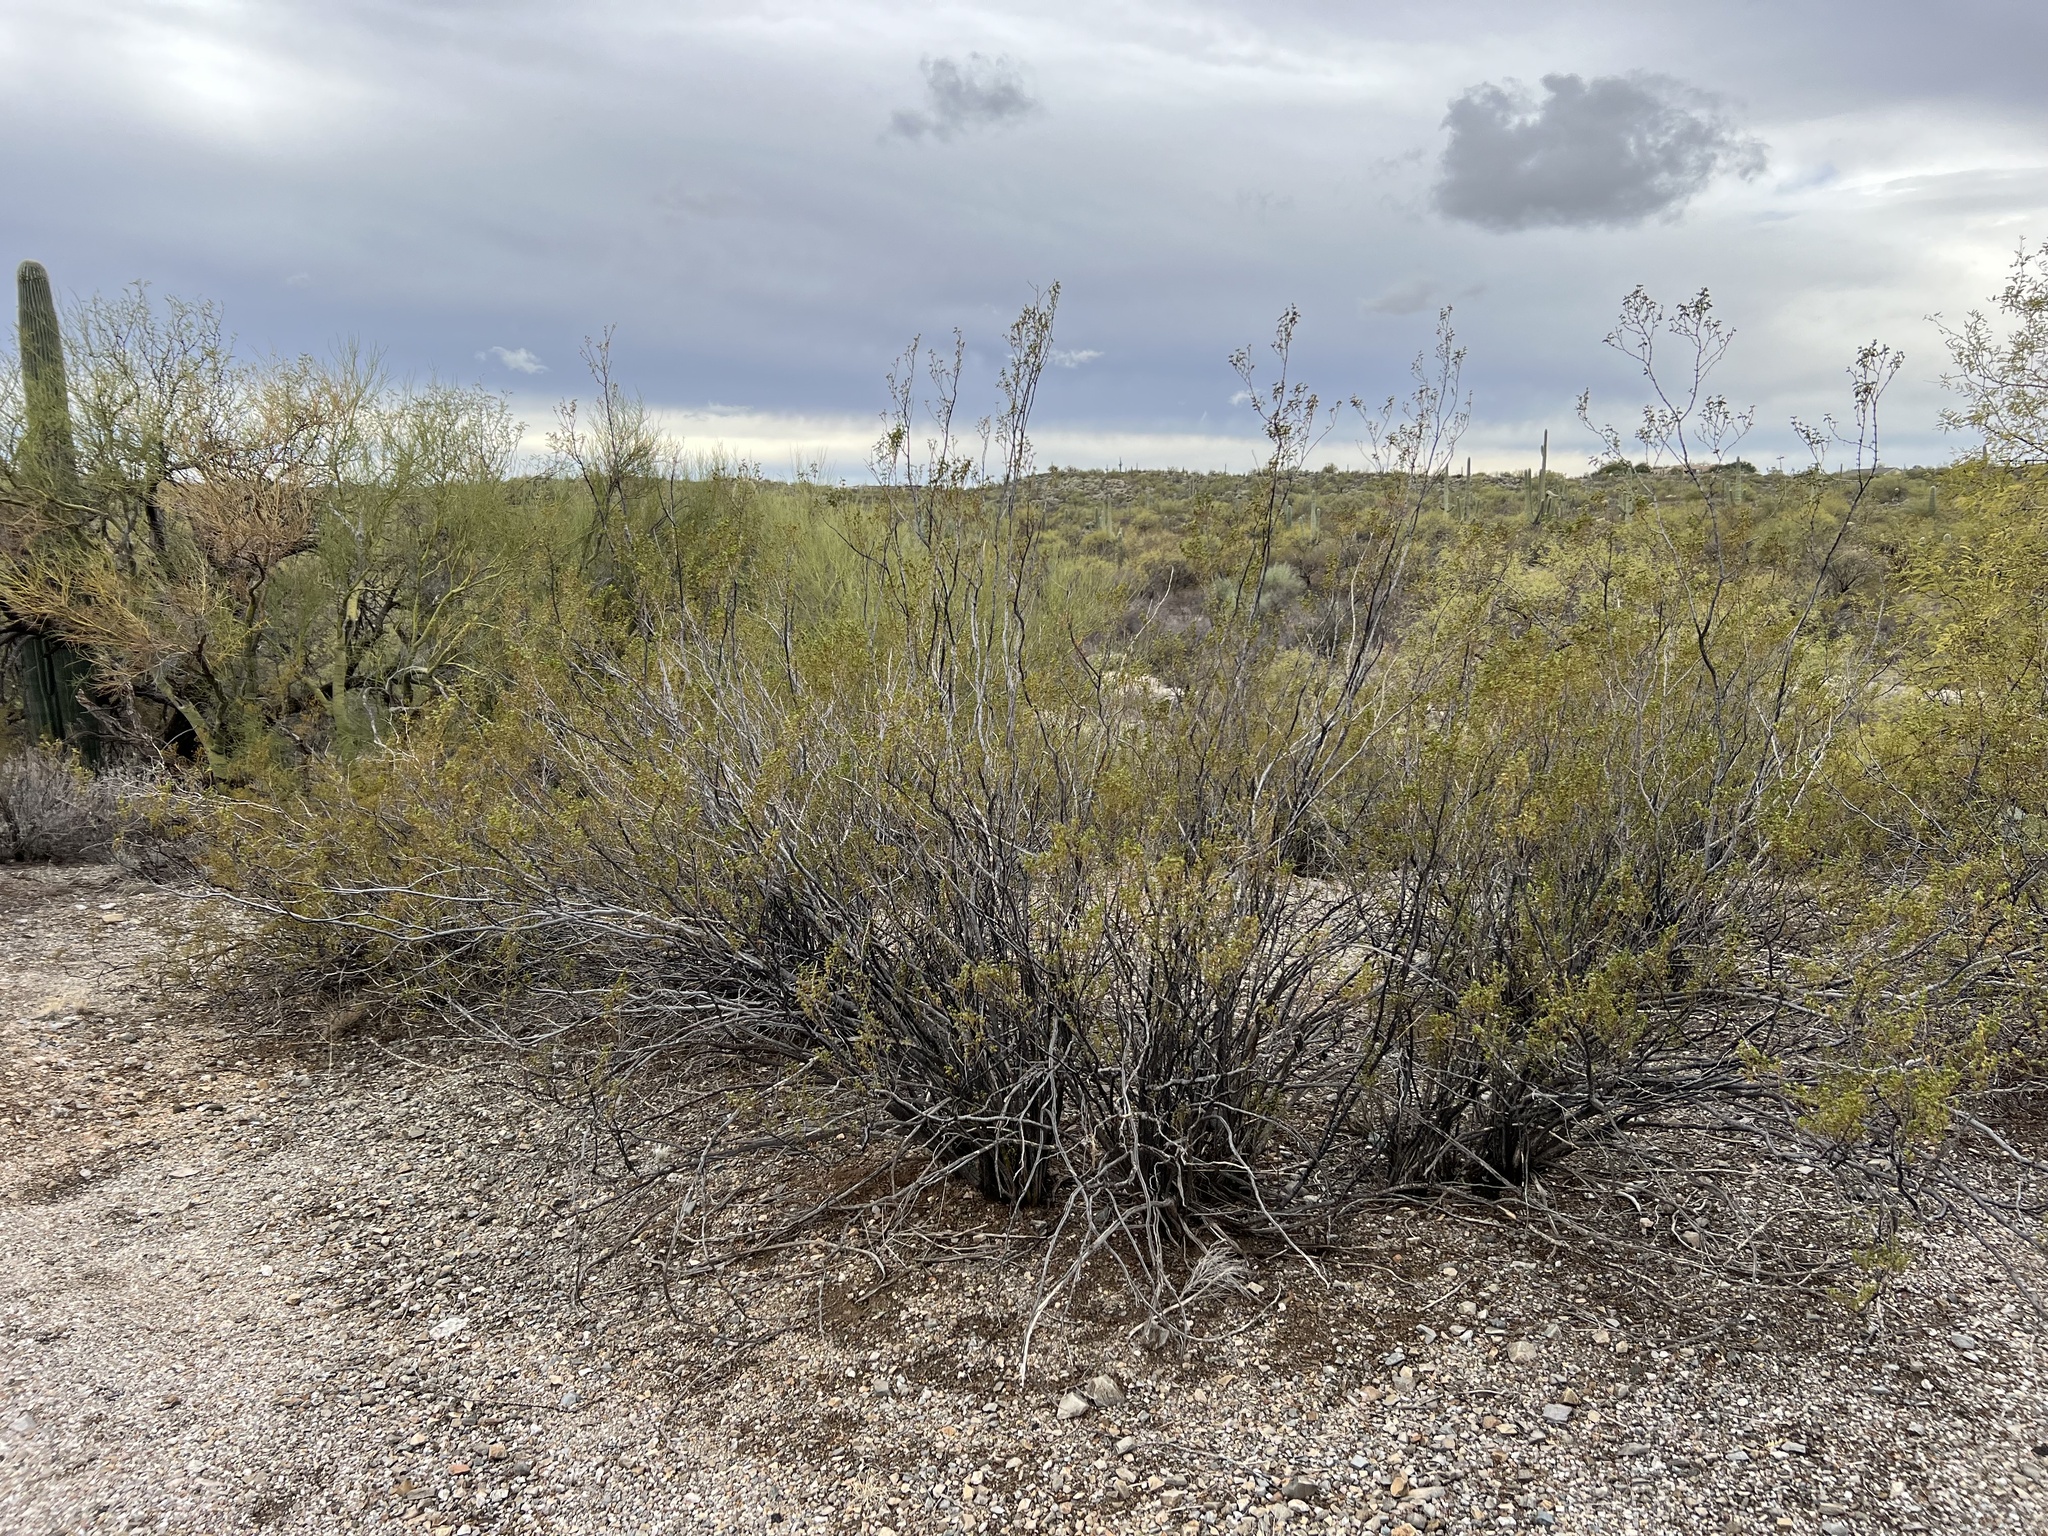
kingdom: Plantae
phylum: Tracheophyta
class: Magnoliopsida
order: Zygophyllales
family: Zygophyllaceae
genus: Larrea
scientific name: Larrea tridentata
